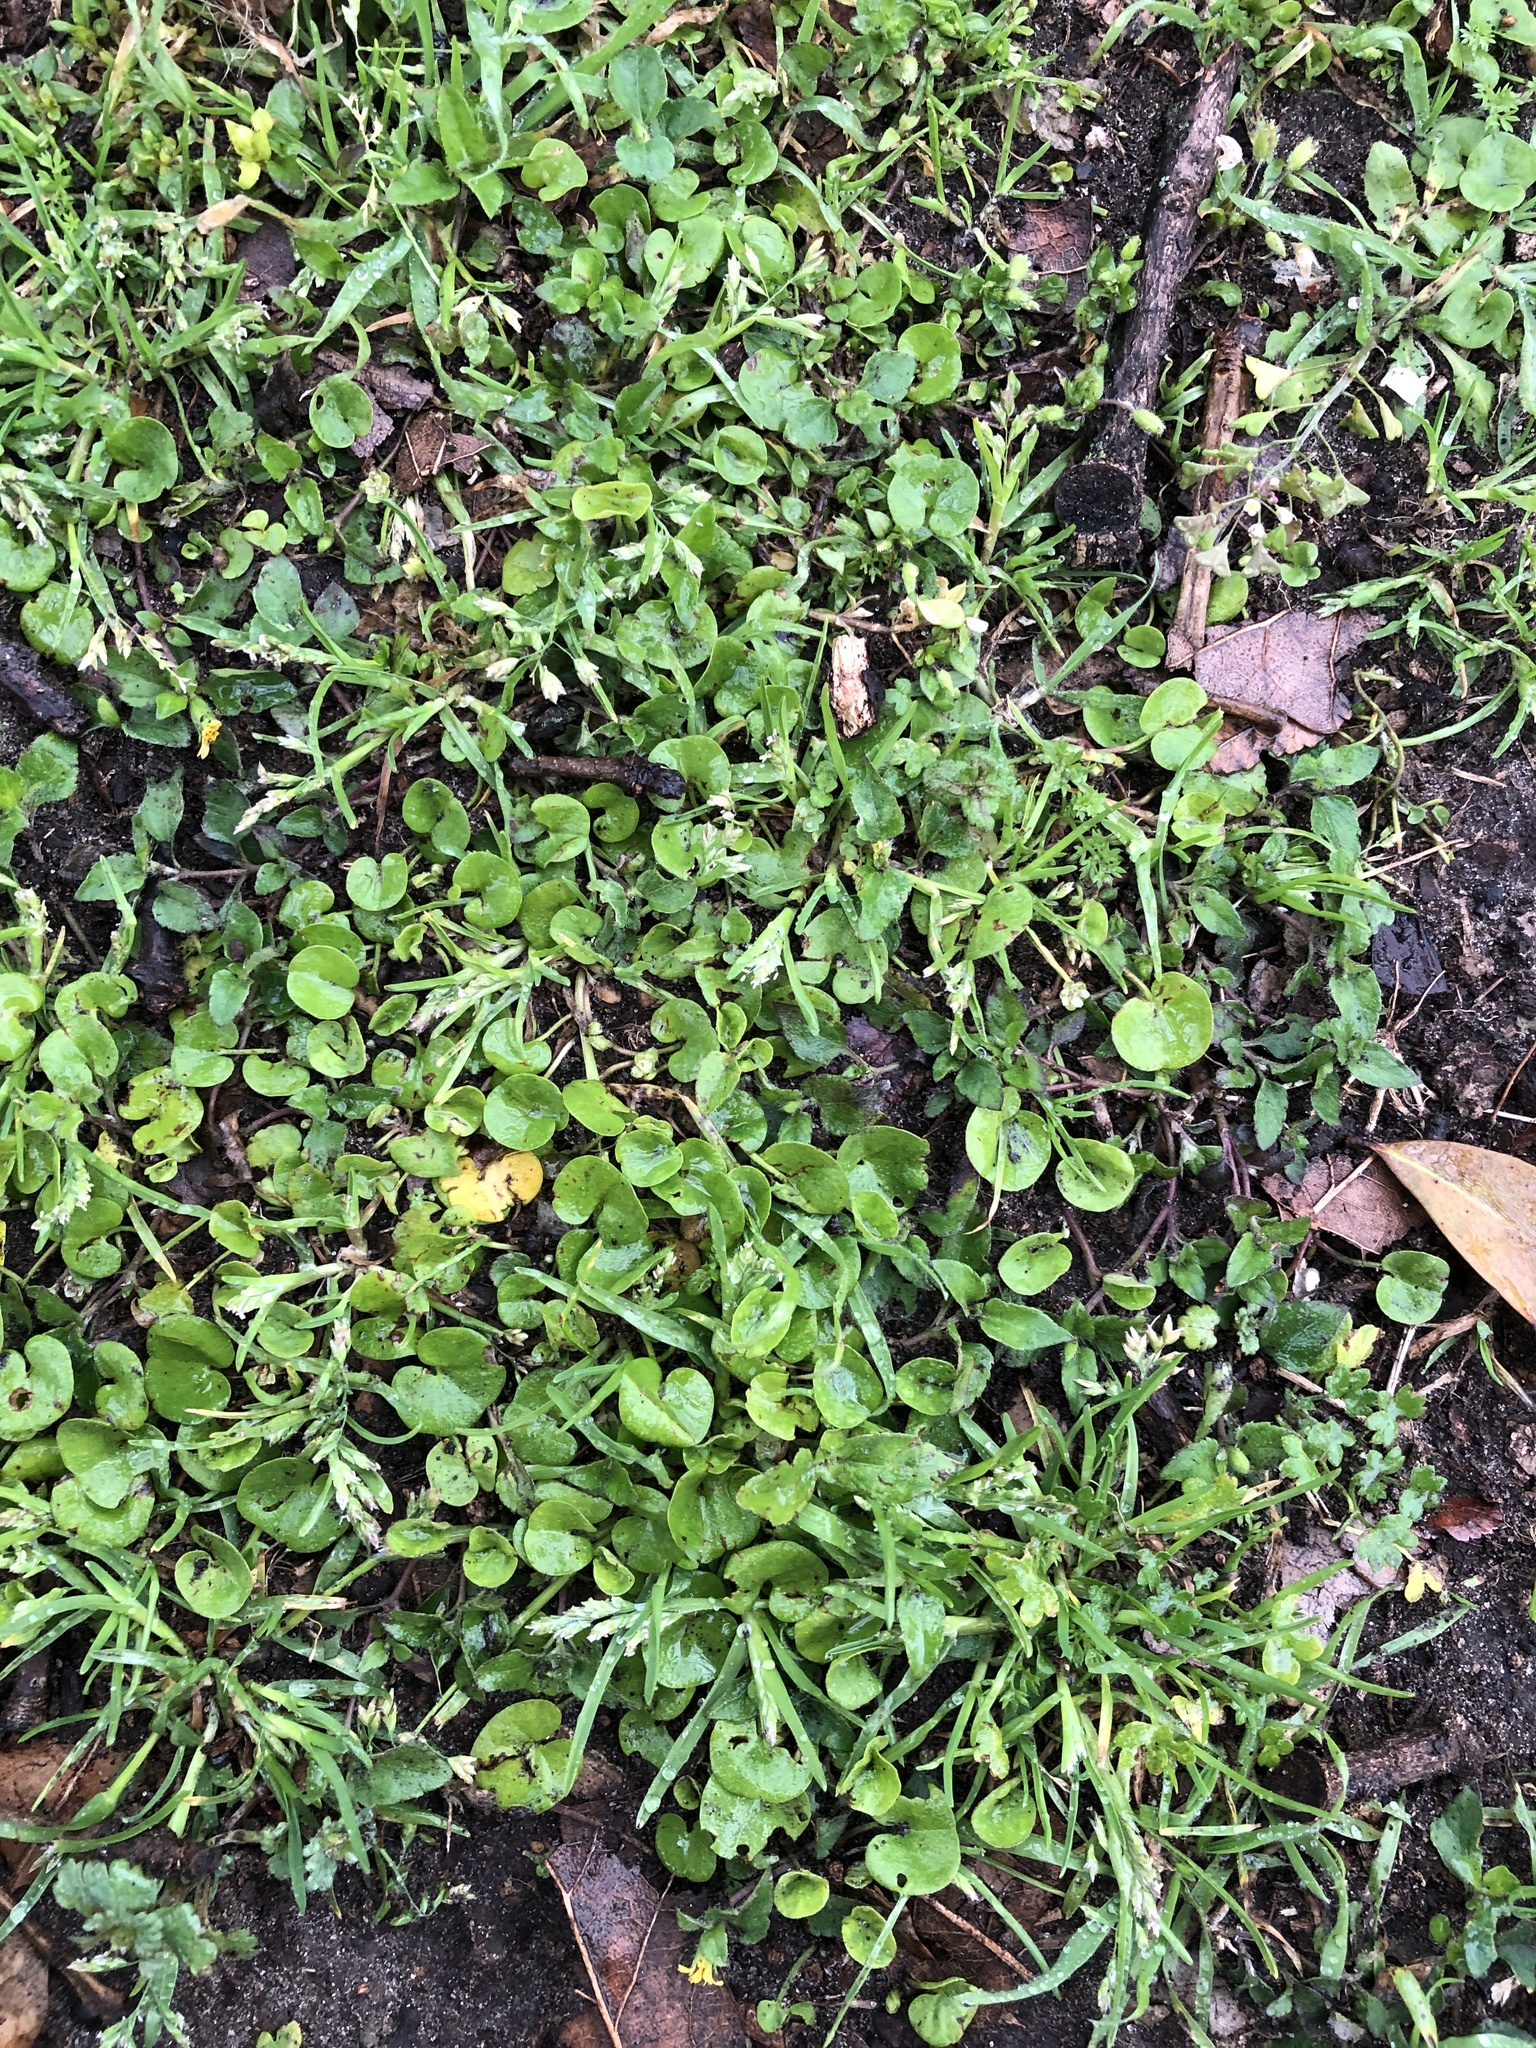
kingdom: Plantae
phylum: Tracheophyta
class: Magnoliopsida
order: Solanales
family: Convolvulaceae
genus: Dichondra
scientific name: Dichondra carolinensis
